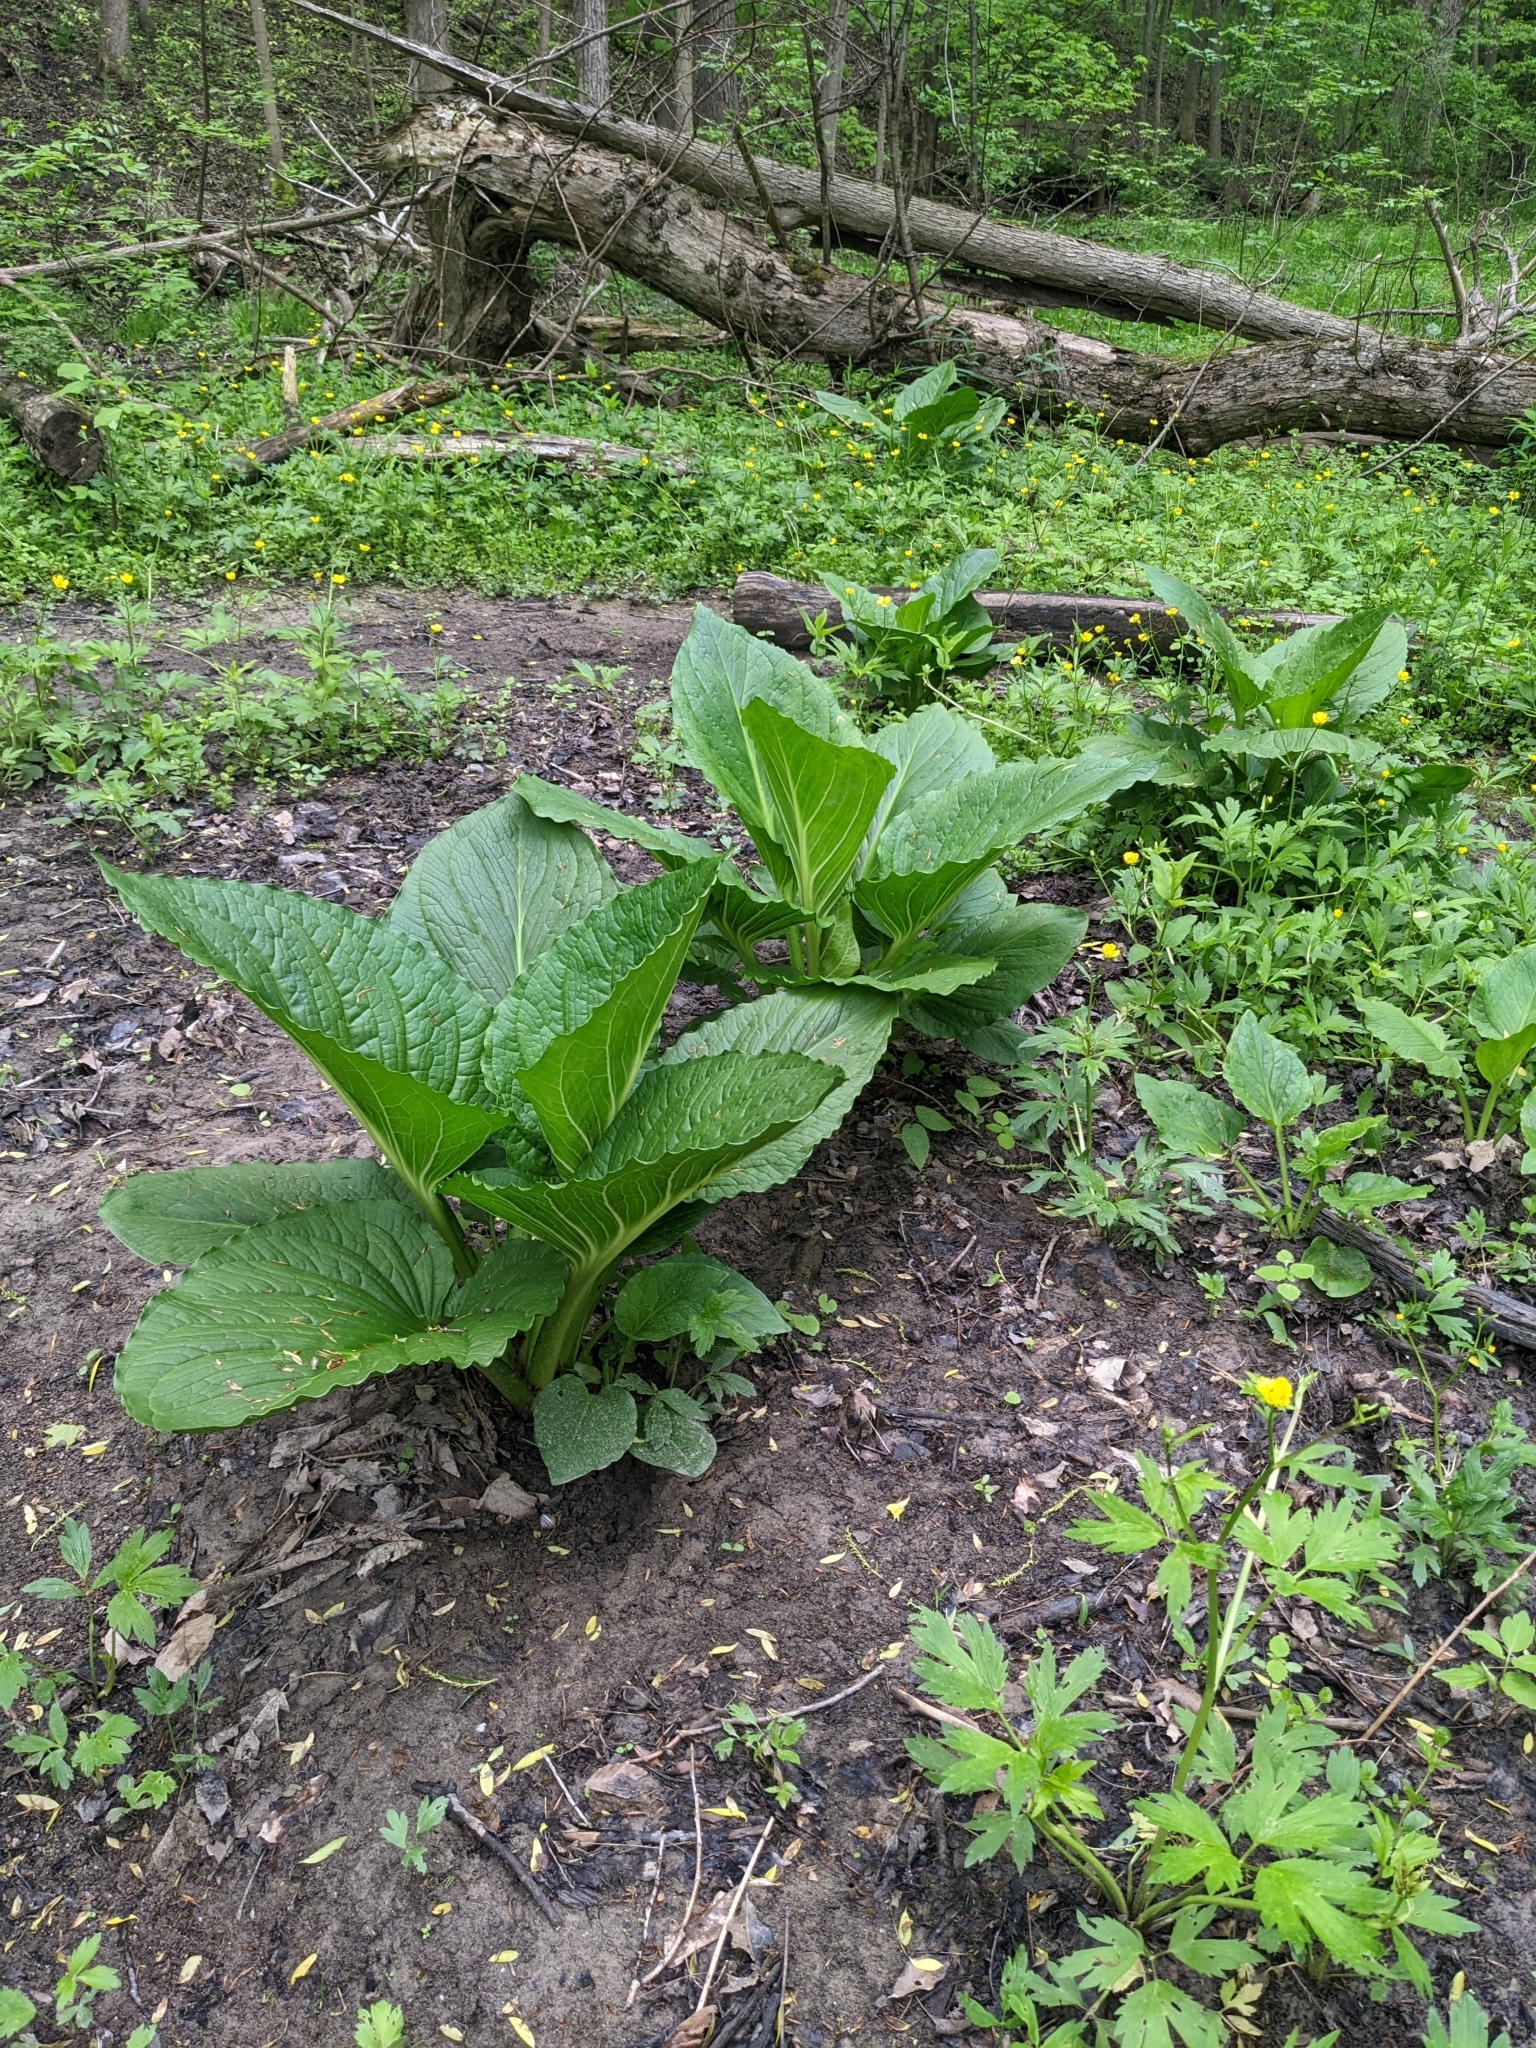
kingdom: Plantae
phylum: Tracheophyta
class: Liliopsida
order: Alismatales
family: Araceae
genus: Symplocarpus
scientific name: Symplocarpus foetidus
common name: Eastern skunk cabbage
